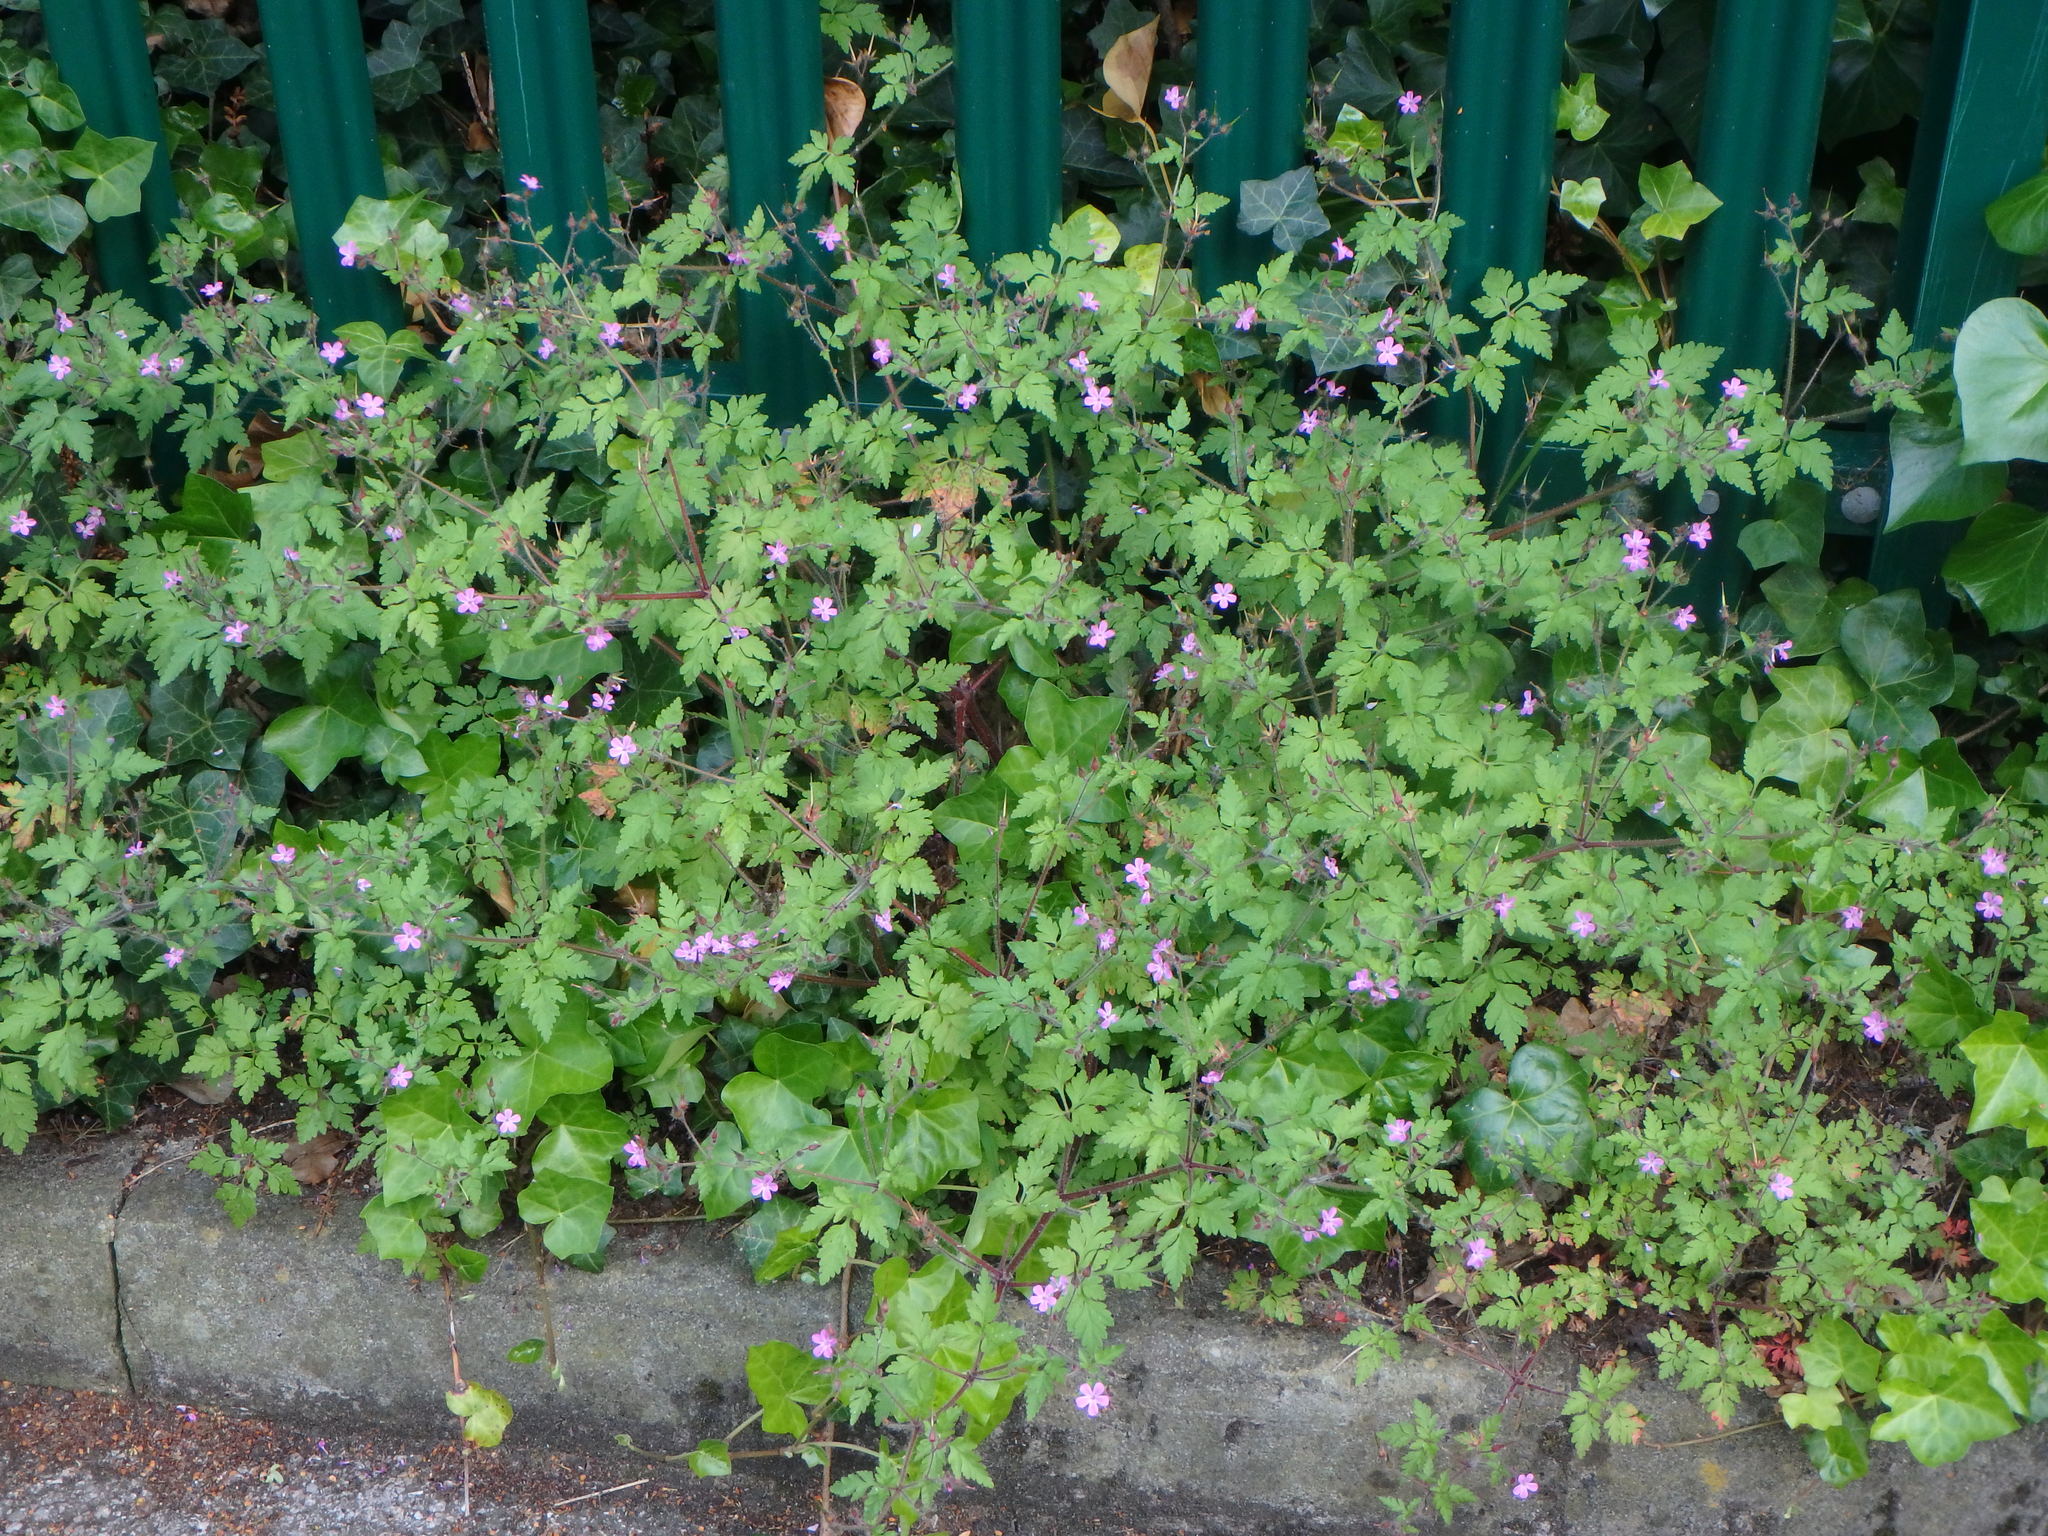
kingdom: Plantae
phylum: Tracheophyta
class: Magnoliopsida
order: Geraniales
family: Geraniaceae
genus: Geranium
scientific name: Geranium robertianum
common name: Herb-robert
